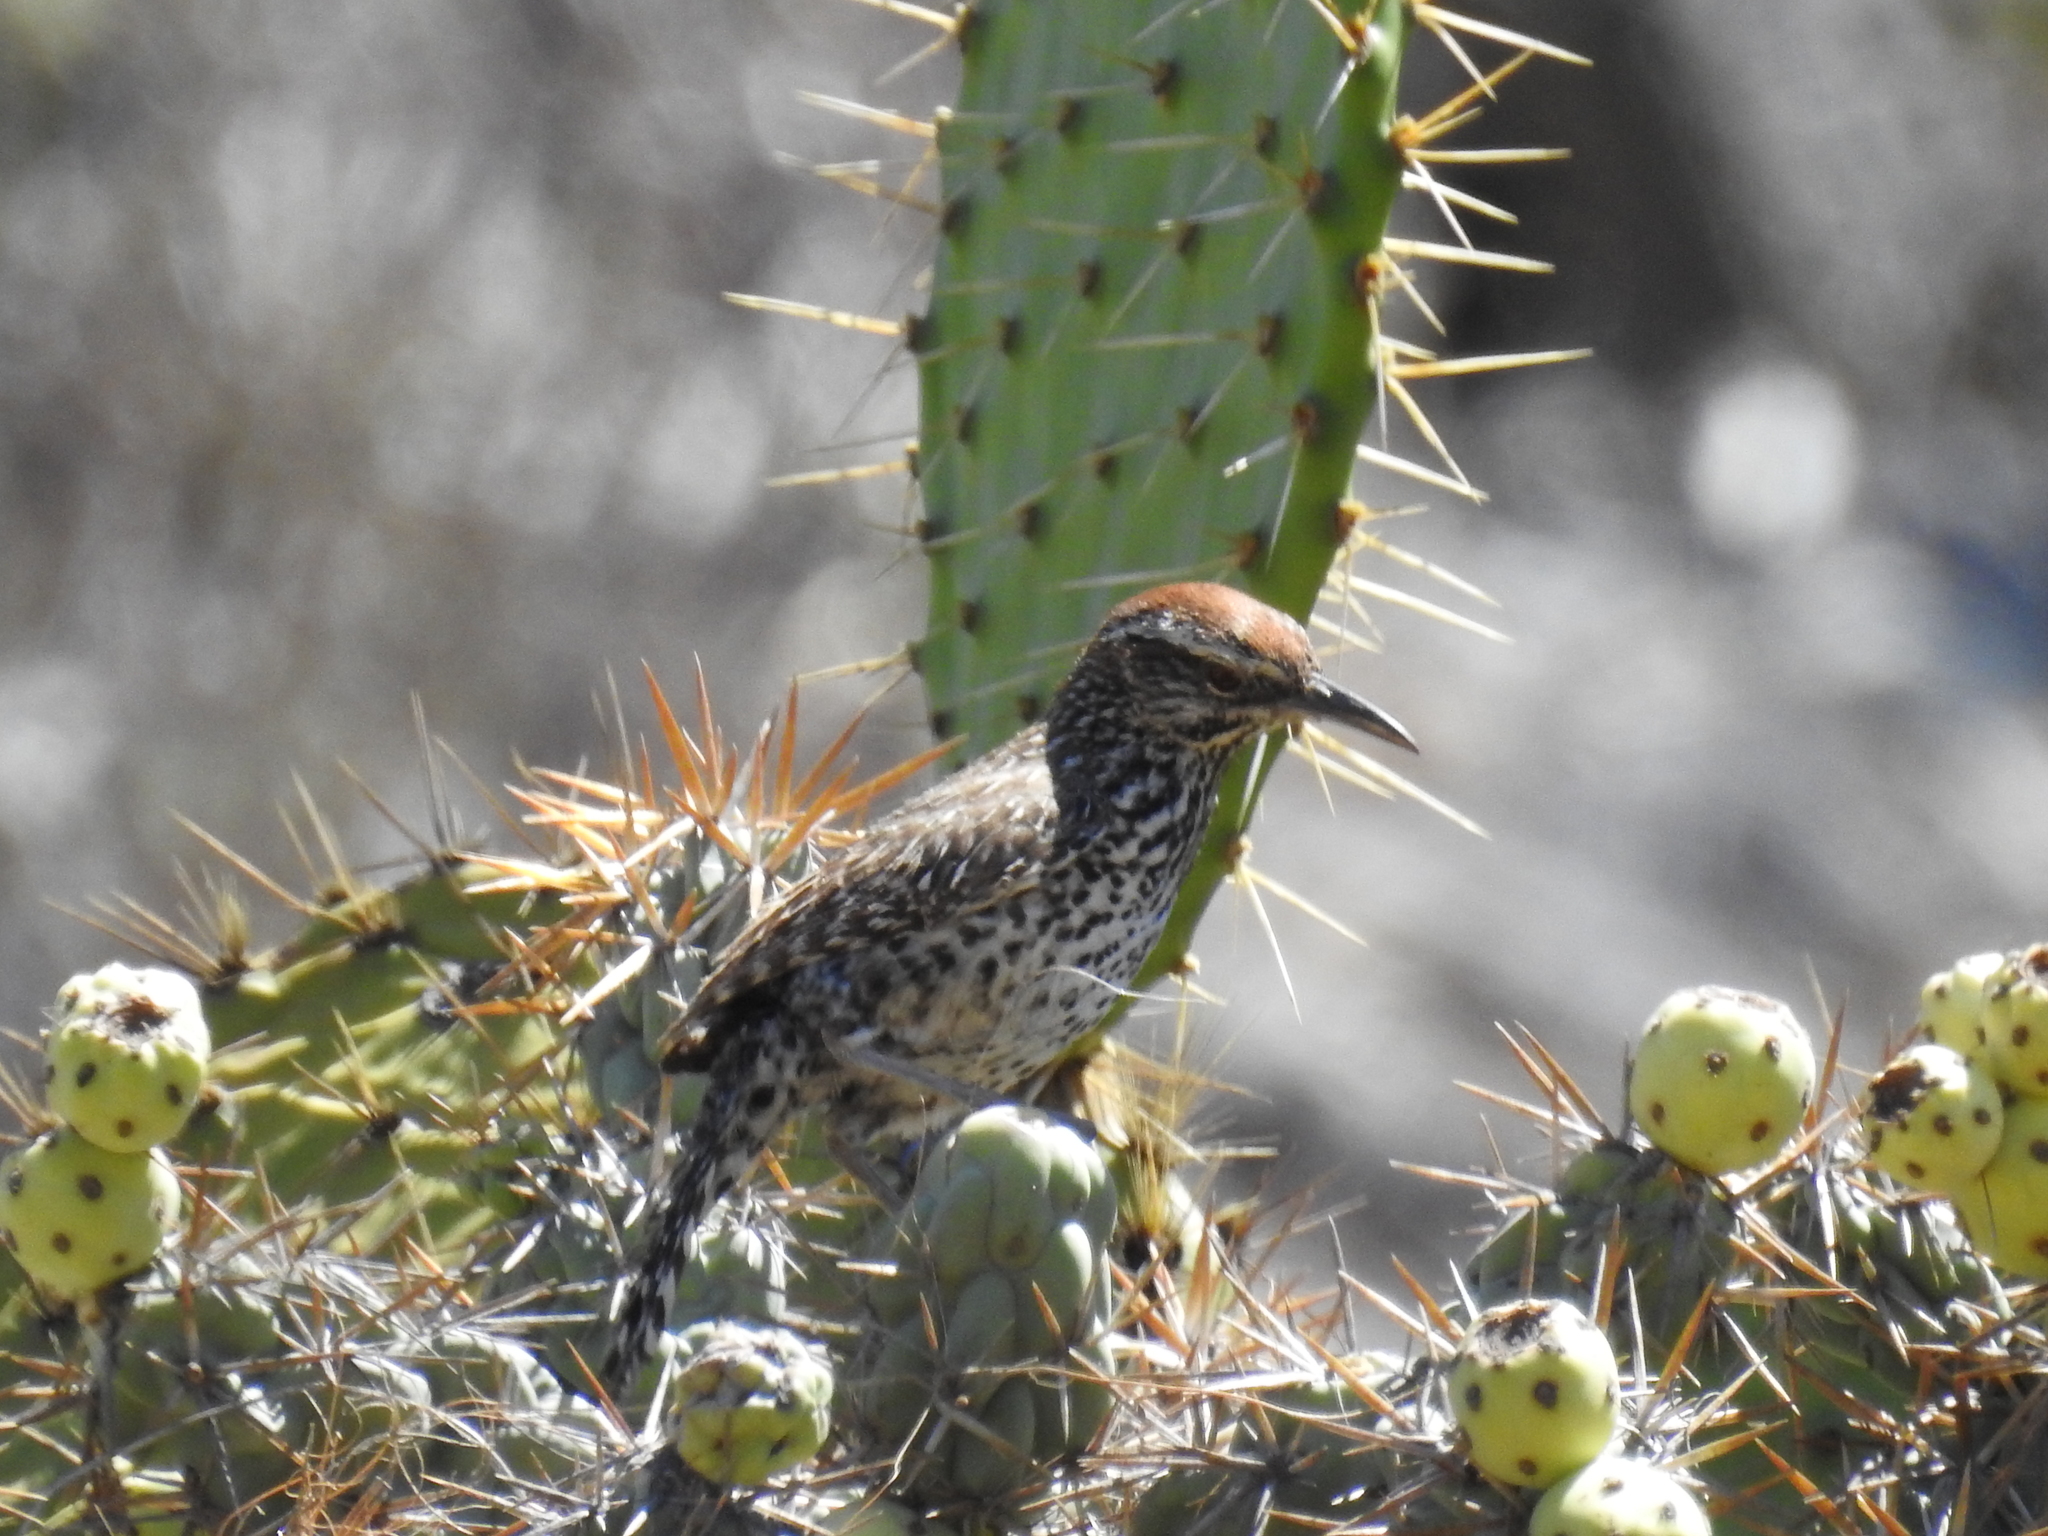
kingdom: Animalia
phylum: Chordata
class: Aves
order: Passeriformes
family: Troglodytidae
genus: Campylorhynchus
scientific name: Campylorhynchus brunneicapillus
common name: Cactus wren
